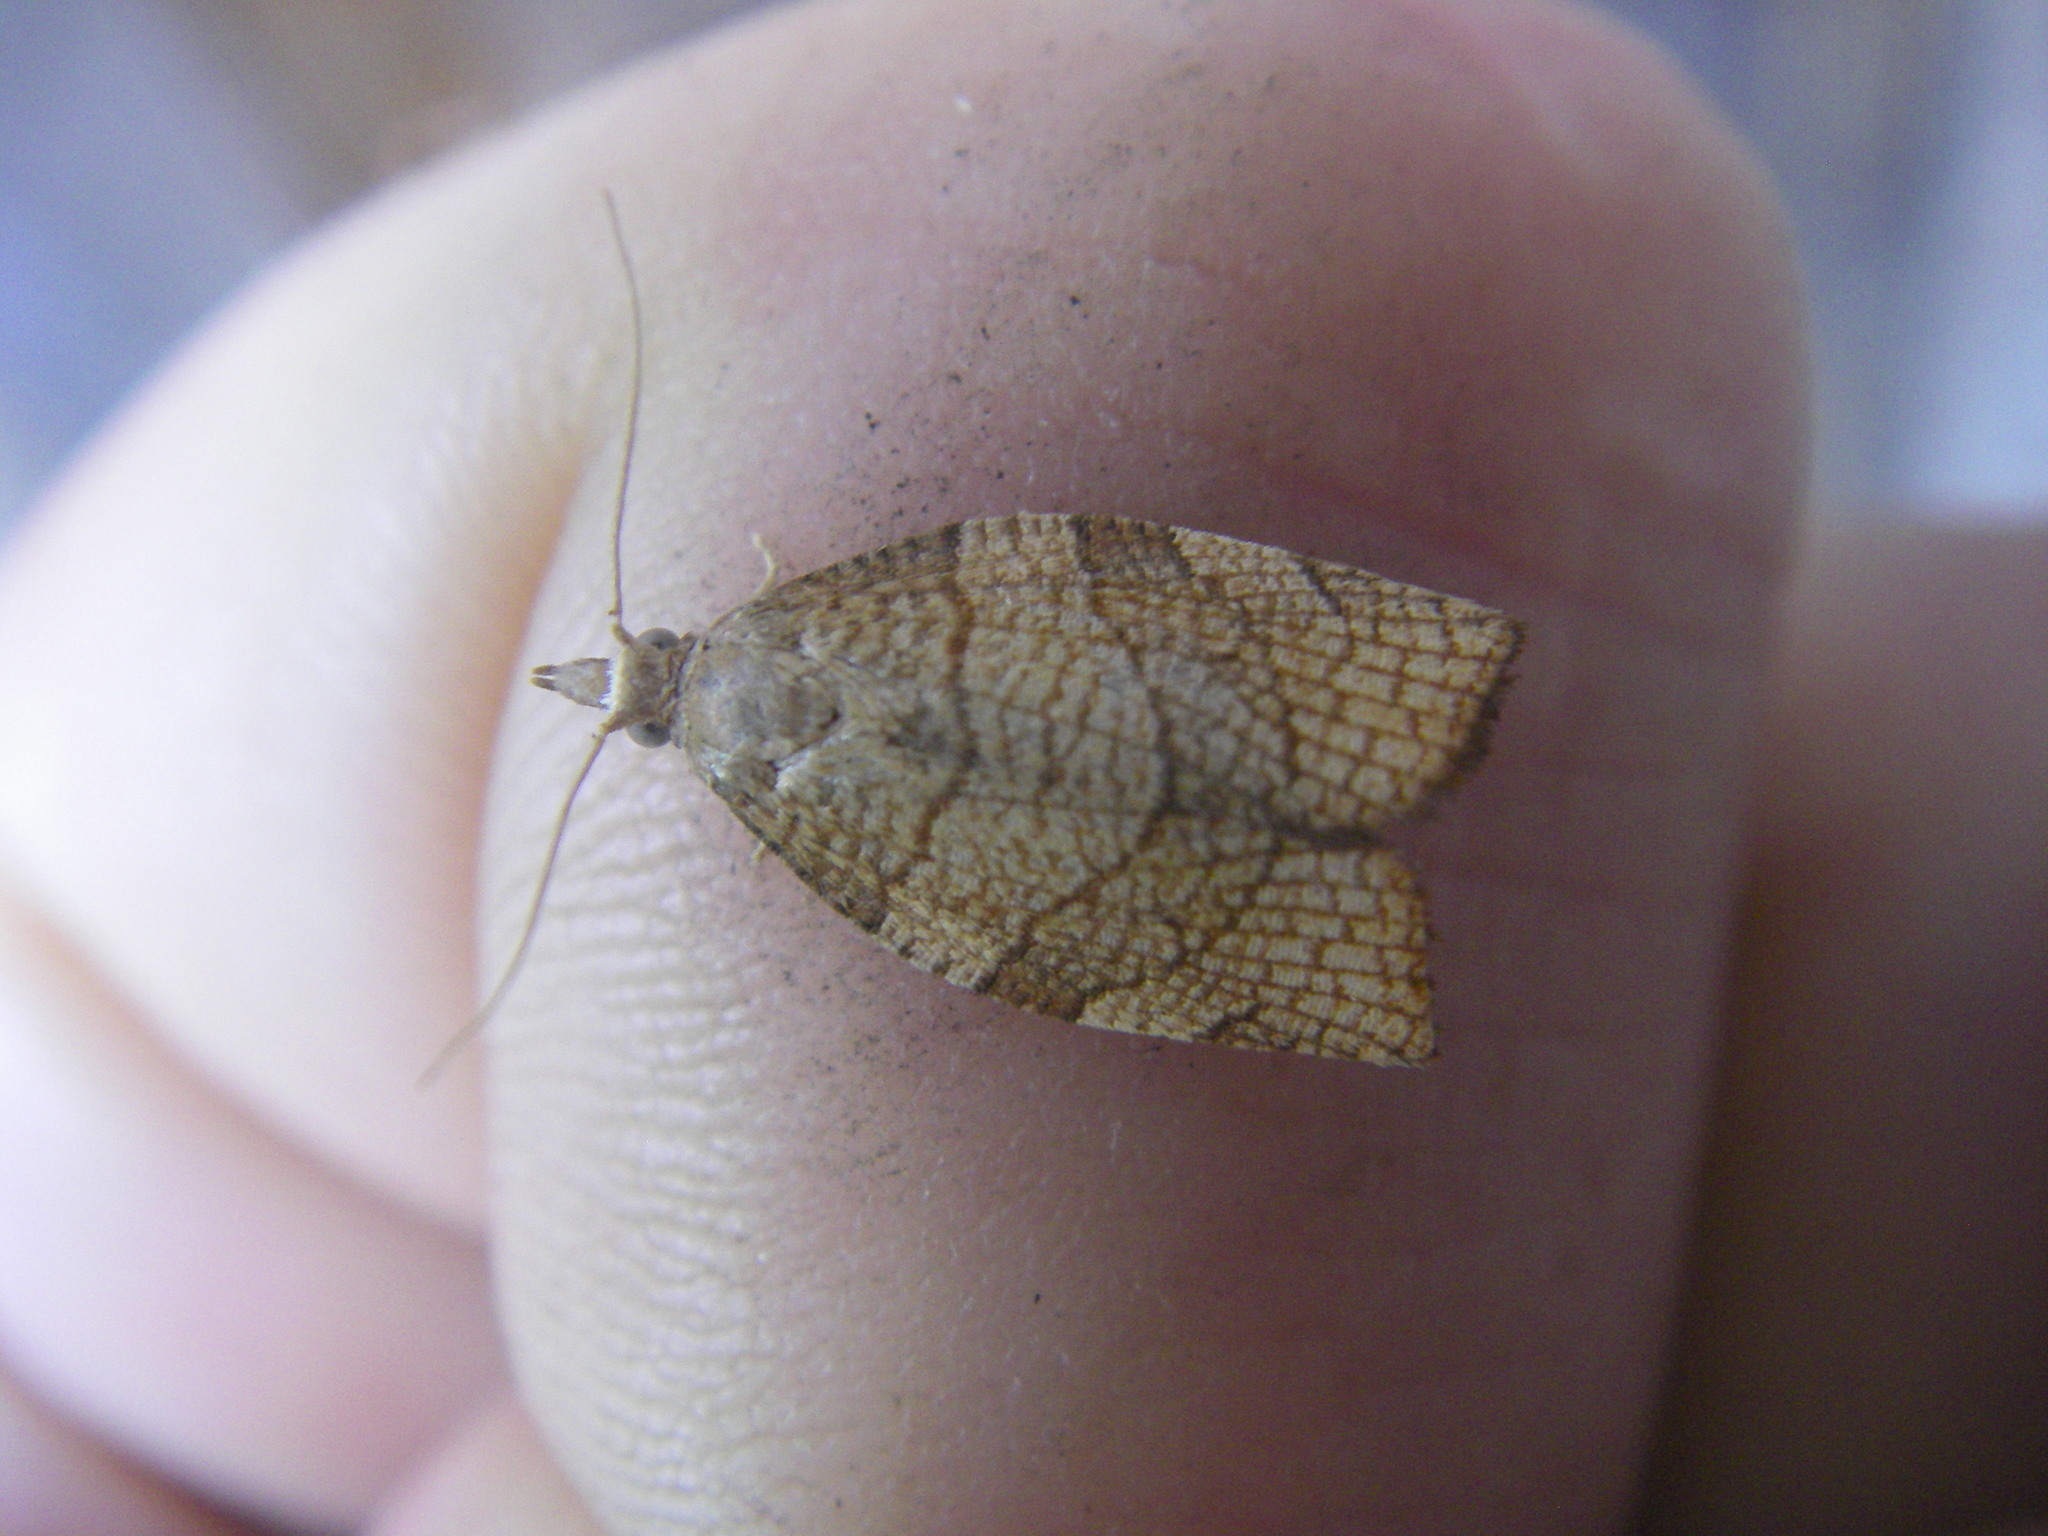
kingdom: Animalia
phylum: Arthropoda
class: Insecta
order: Lepidoptera
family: Tortricidae
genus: Pandemis
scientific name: Pandemis corylana
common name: Chequered fruit-tree tortrix
